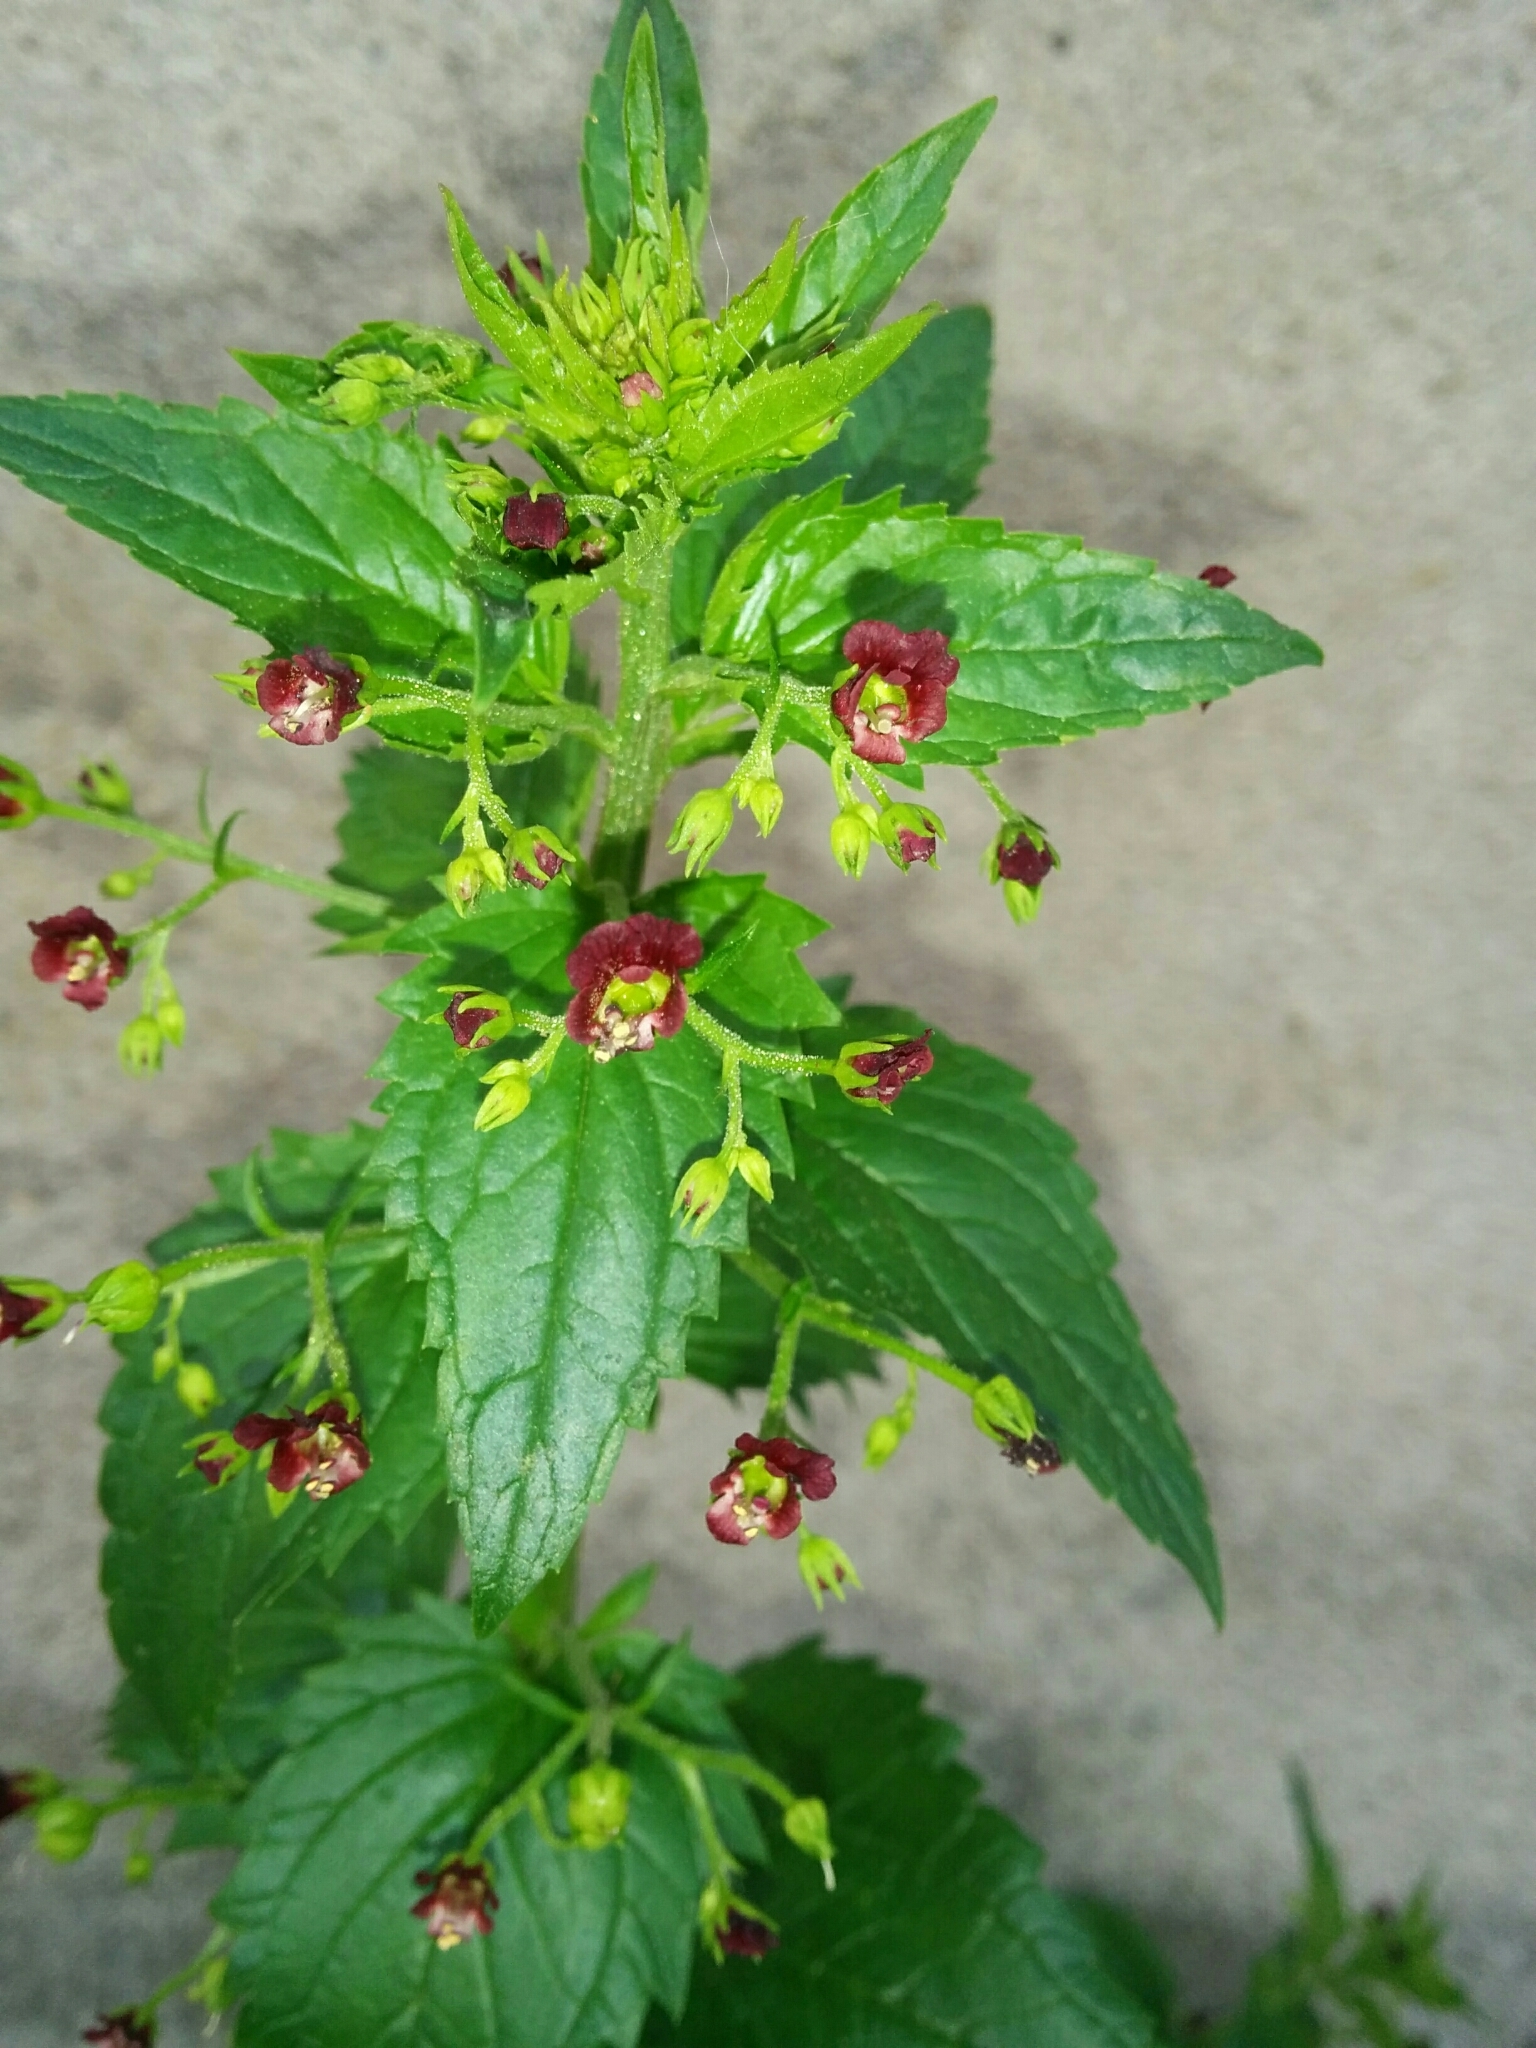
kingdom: Plantae
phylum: Tracheophyta
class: Magnoliopsida
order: Lamiales
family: Scrophulariaceae
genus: Scrophularia
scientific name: Scrophularia peregrina
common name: Mediterranean figwort
